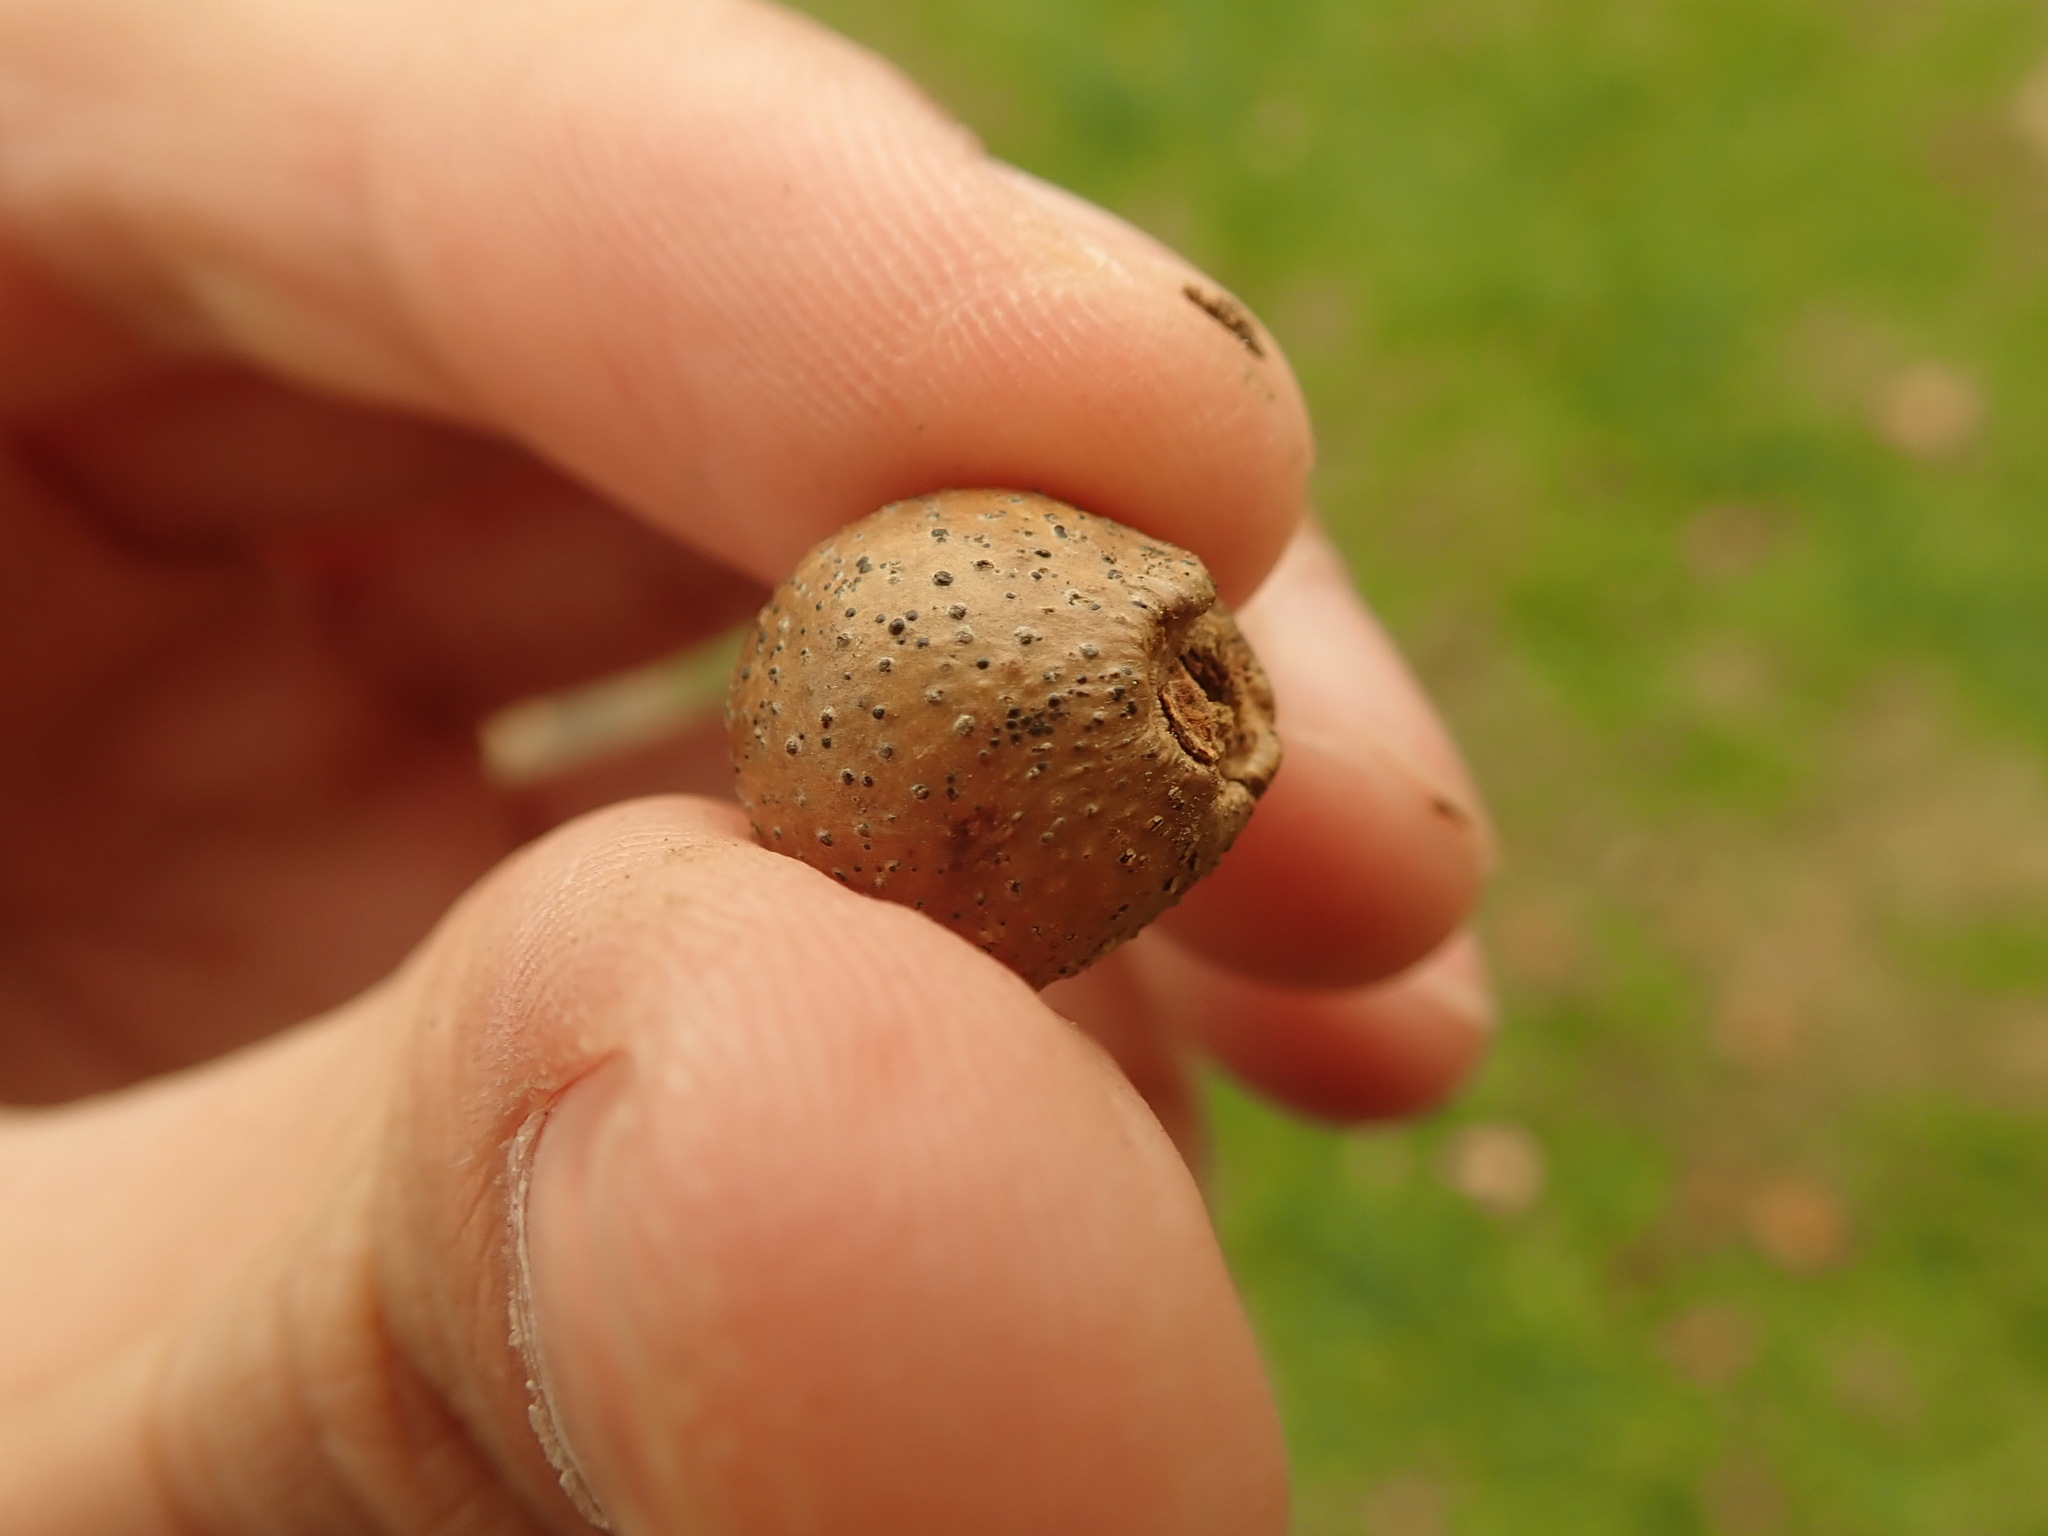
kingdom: Animalia
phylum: Arthropoda
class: Insecta
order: Hymenoptera
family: Cynipidae
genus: Disholcaspis
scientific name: Disholcaspis quercusglobulus
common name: Round bullet gall wasp
